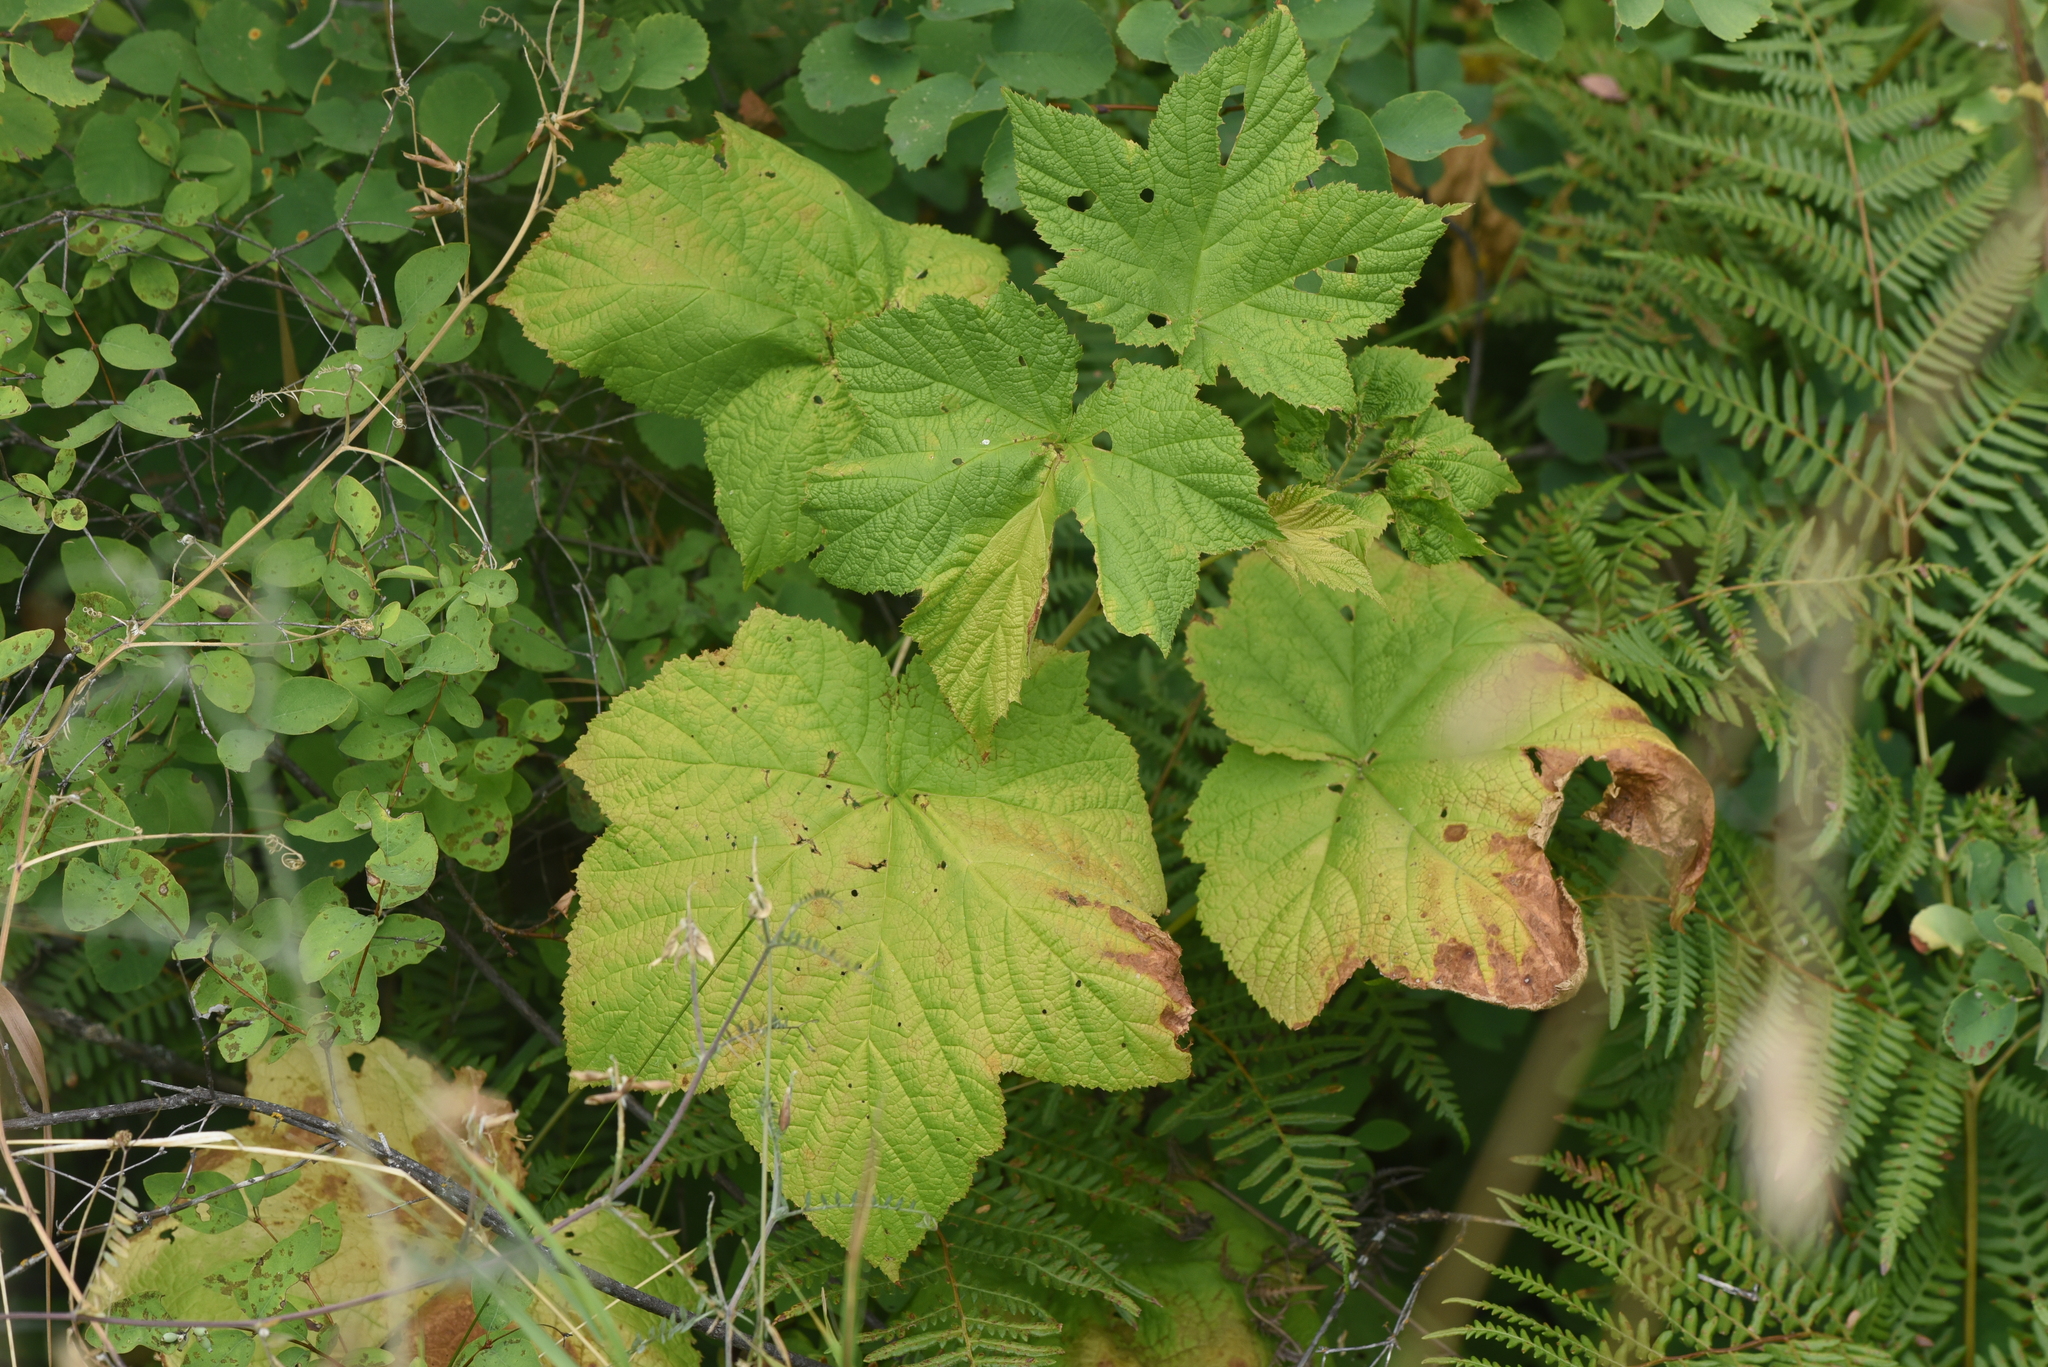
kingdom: Plantae
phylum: Tracheophyta
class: Magnoliopsida
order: Rosales
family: Rosaceae
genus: Rubus
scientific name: Rubus parviflorus
